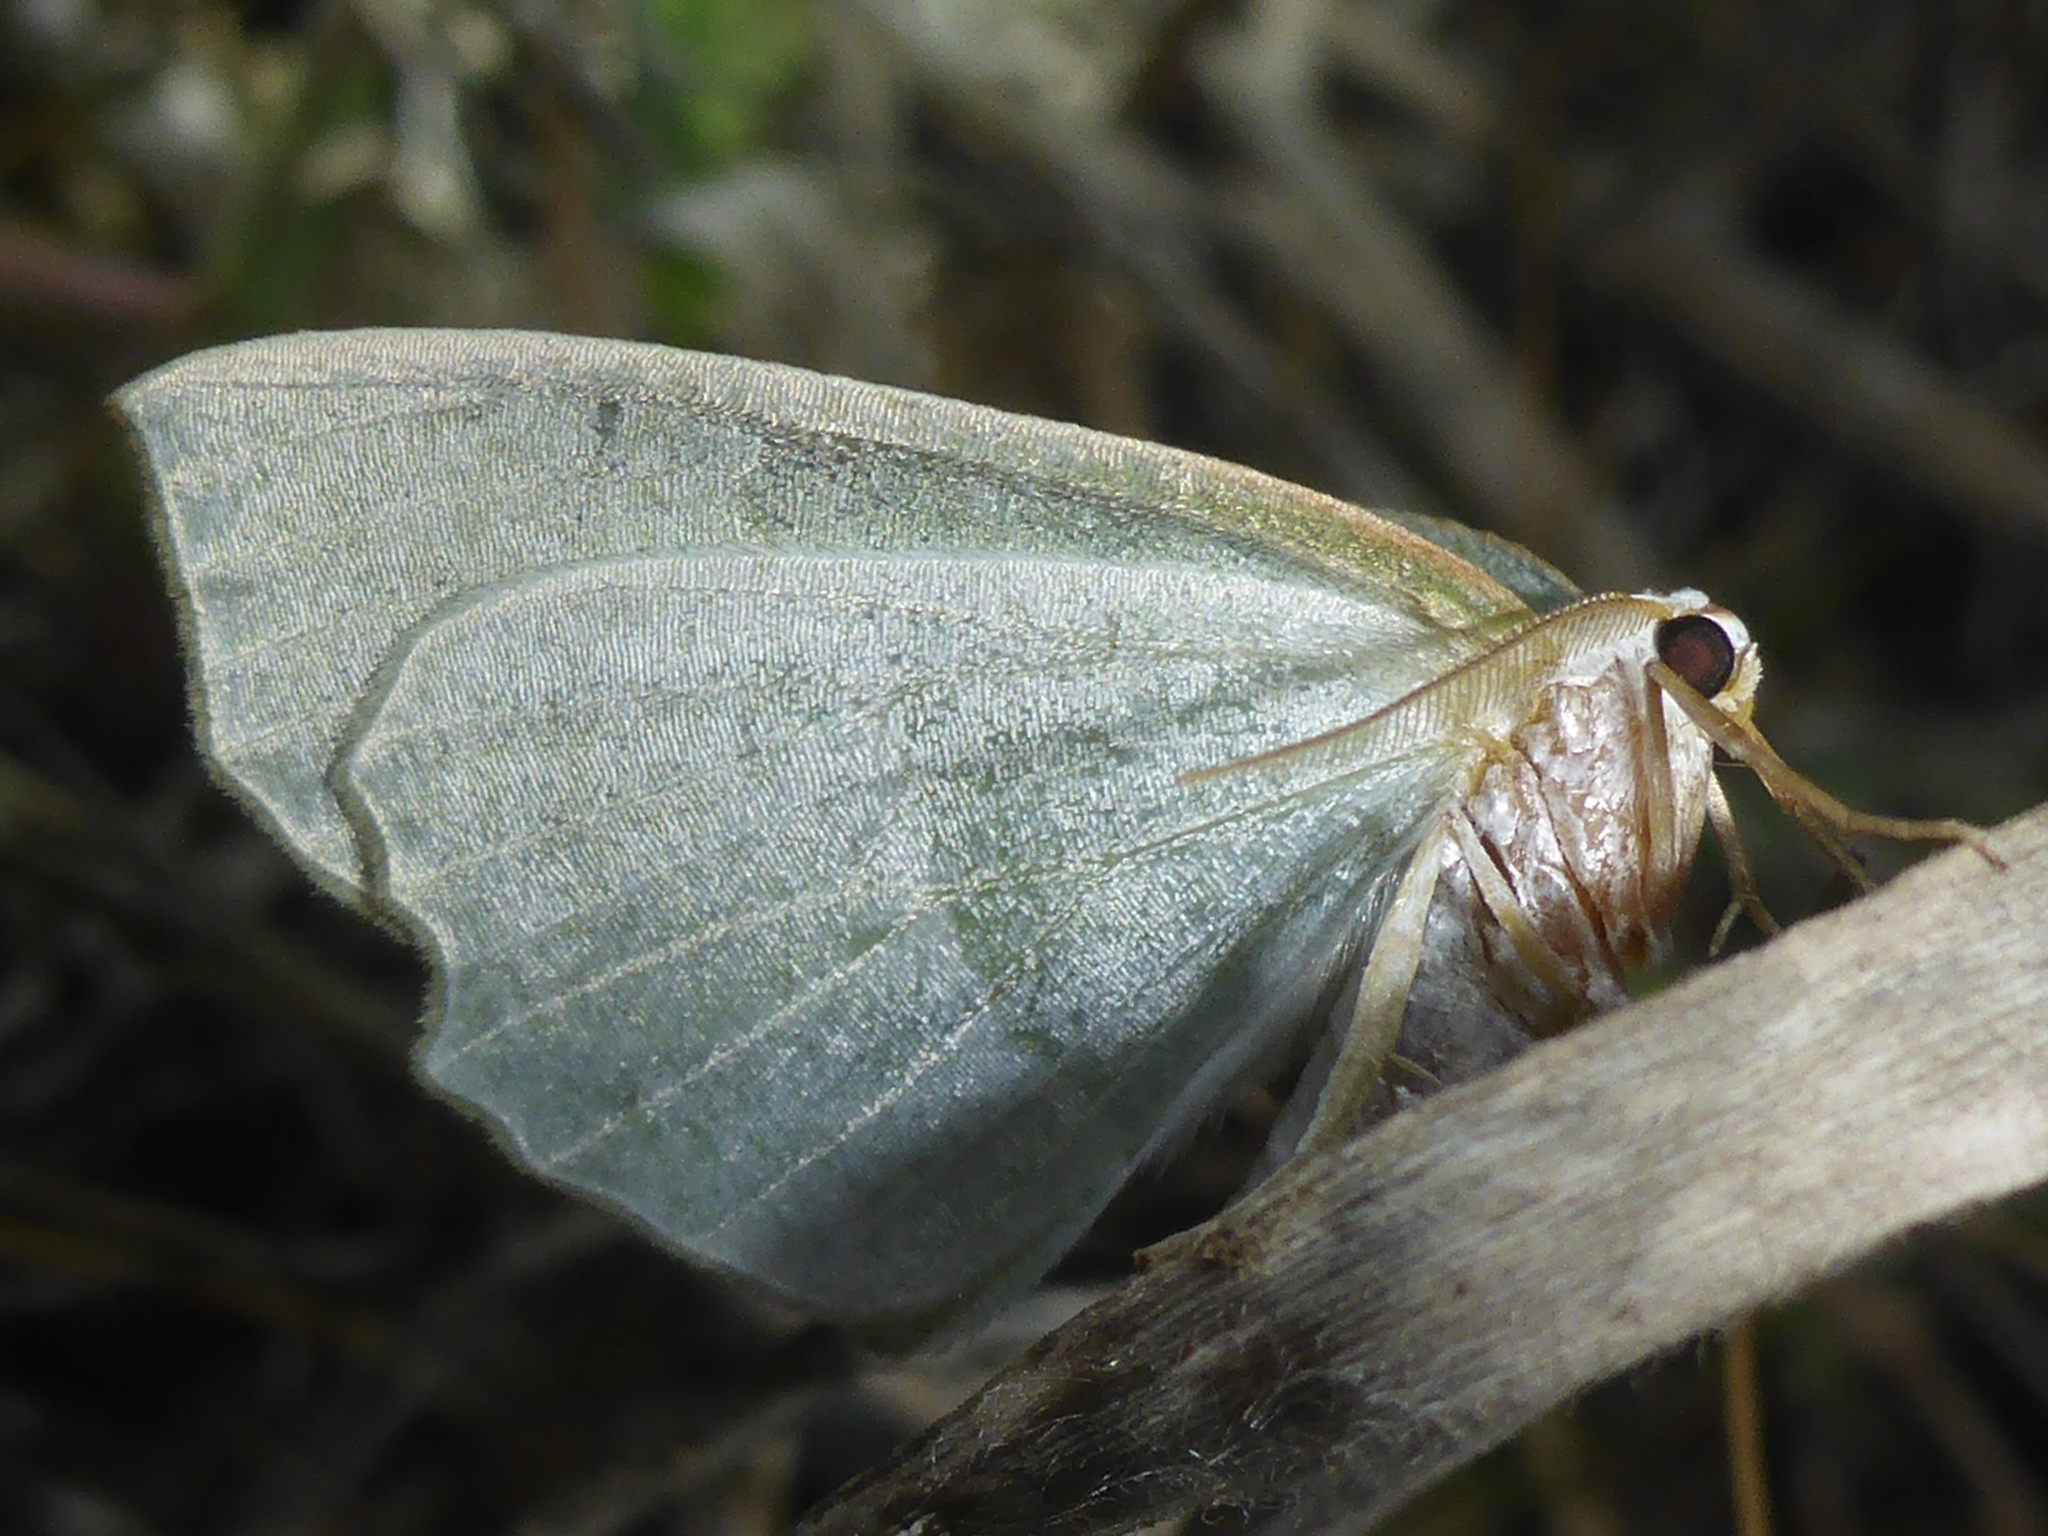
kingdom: Animalia
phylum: Arthropoda
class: Insecta
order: Lepidoptera
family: Geometridae
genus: Campaea
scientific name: Campaea perlata
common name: Fringed looper
